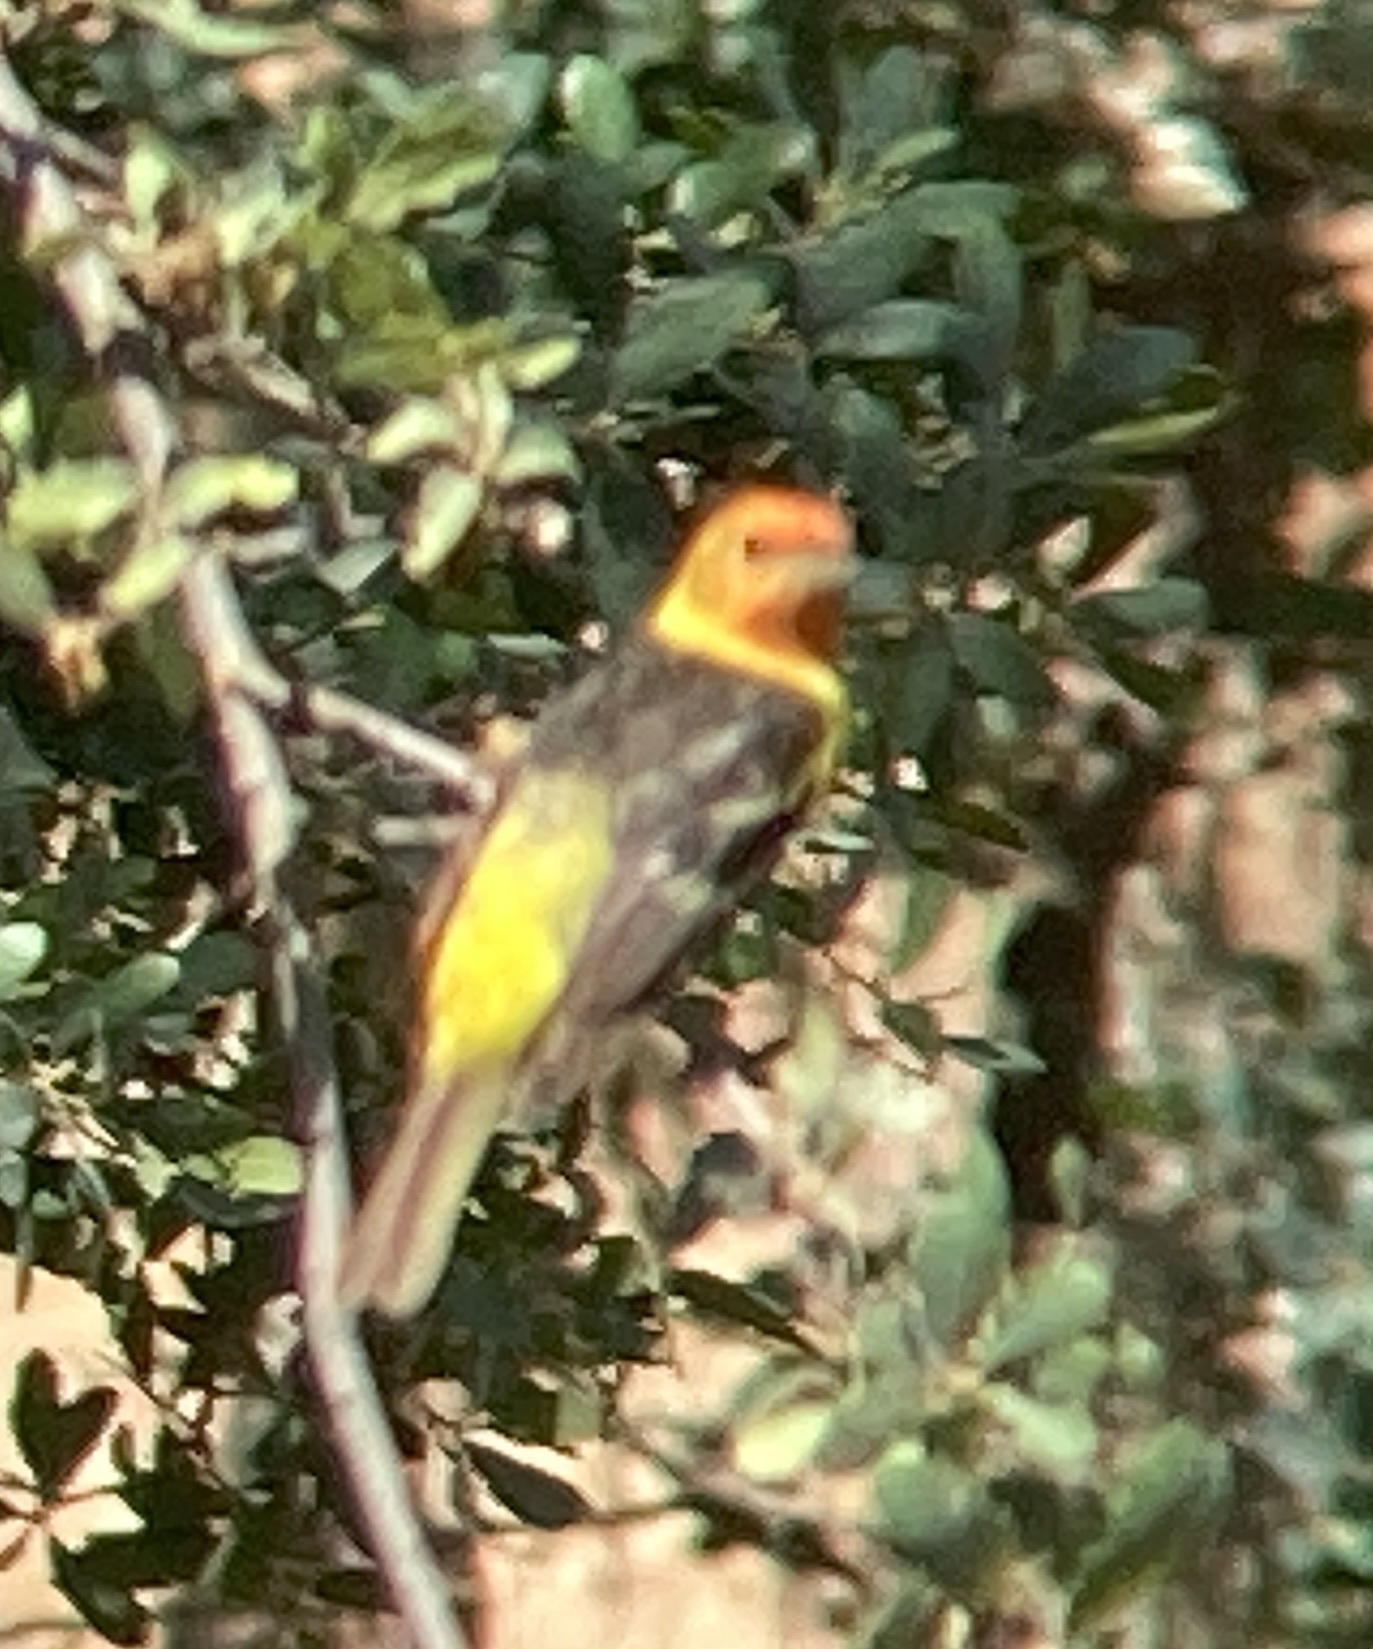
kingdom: Animalia
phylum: Chordata
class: Aves
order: Passeriformes
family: Cardinalidae
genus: Piranga
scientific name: Piranga ludoviciana
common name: Western tanager
